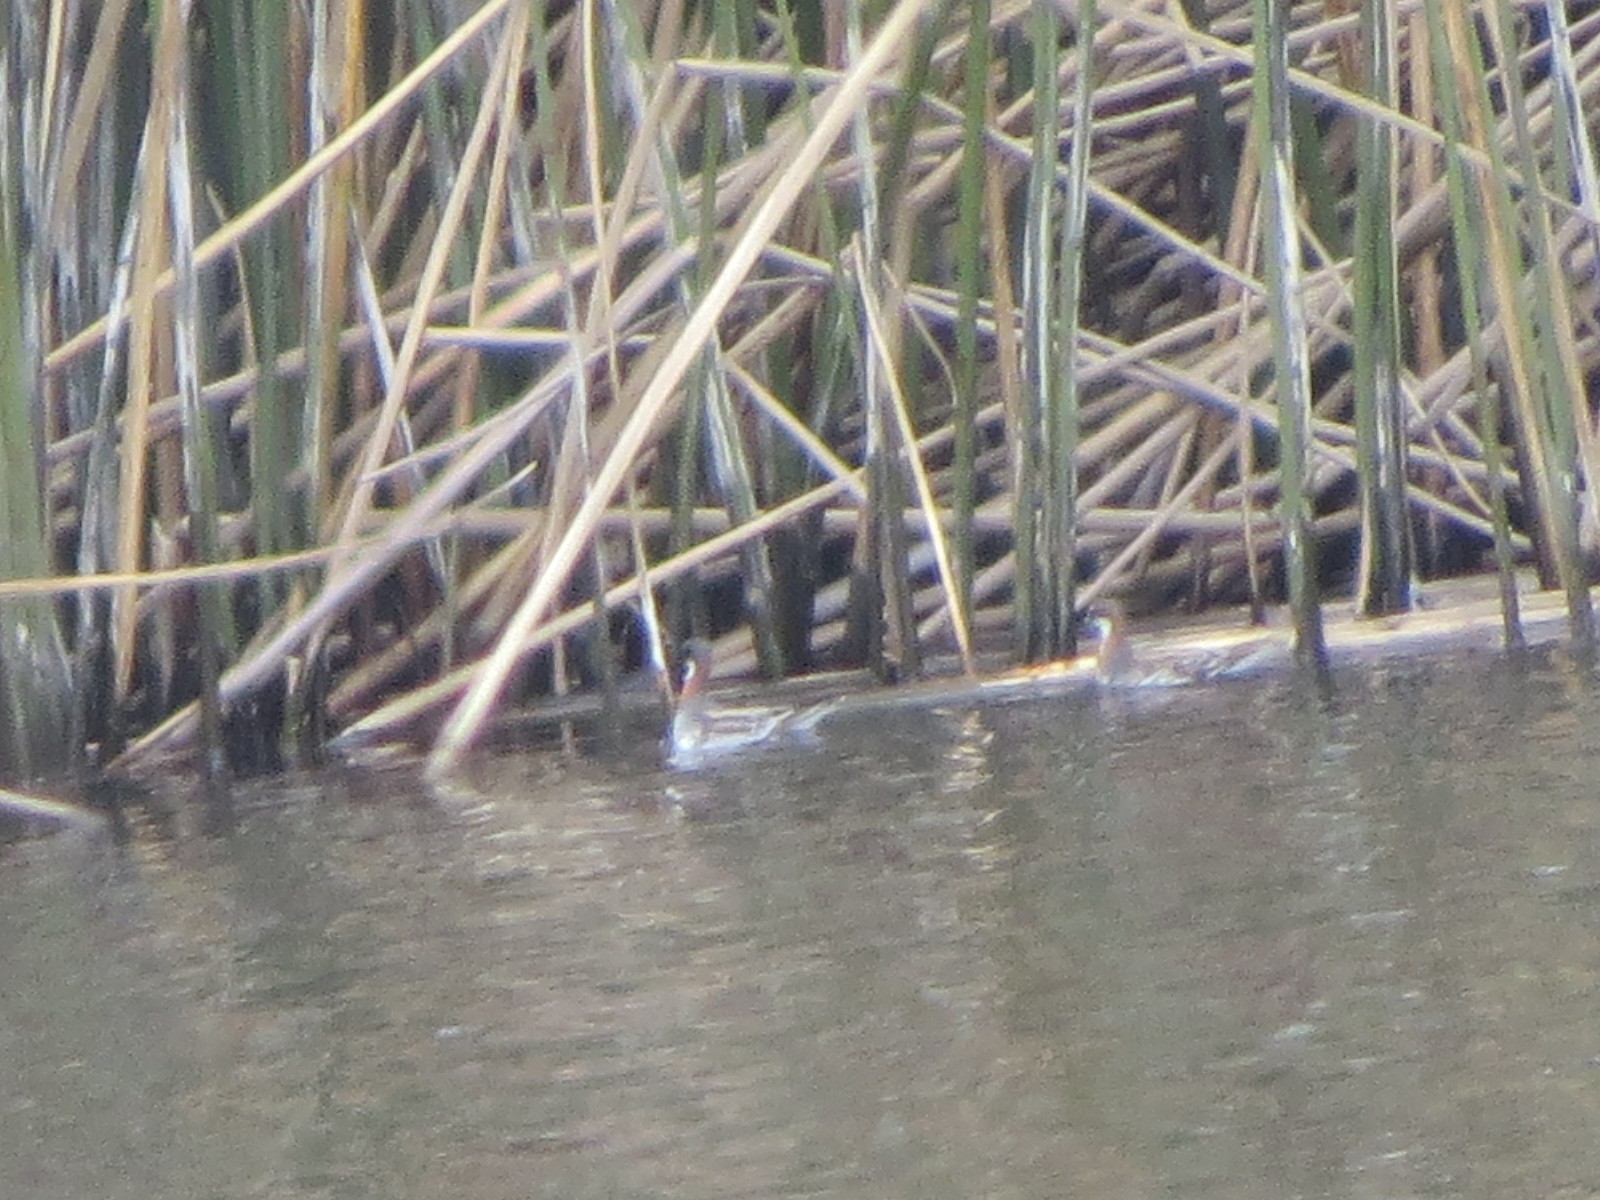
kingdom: Animalia
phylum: Chordata
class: Aves
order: Charadriiformes
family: Scolopacidae
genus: Phalaropus
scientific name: Phalaropus lobatus
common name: Red-necked phalarope
